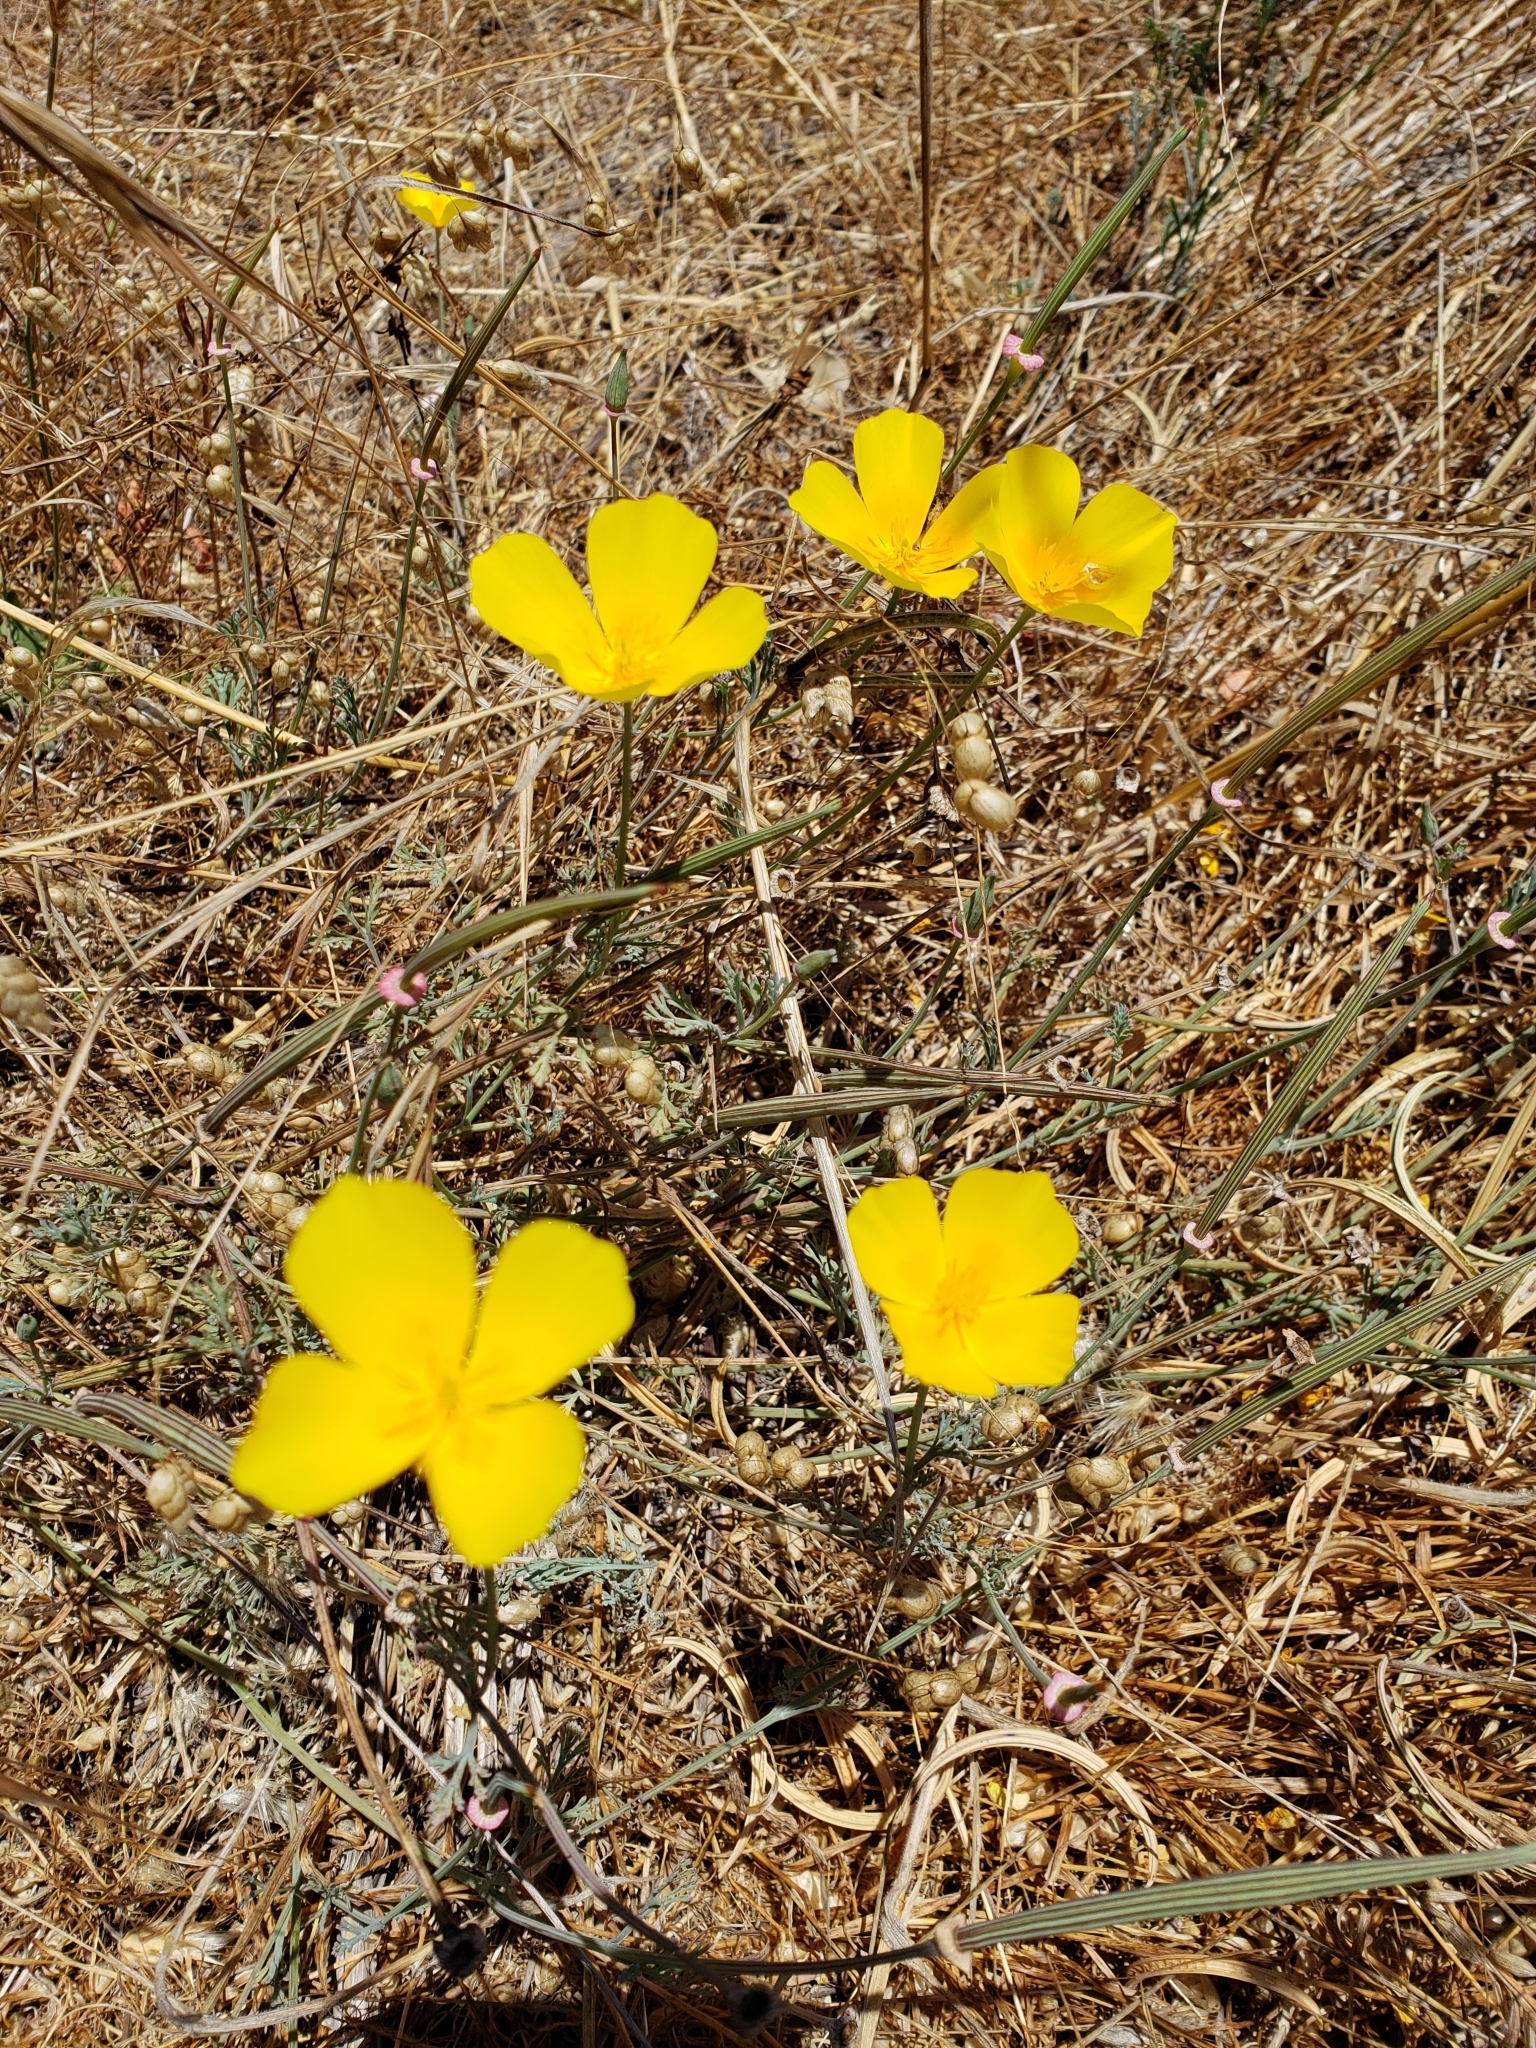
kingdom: Plantae
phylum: Tracheophyta
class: Magnoliopsida
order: Ranunculales
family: Papaveraceae
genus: Eschscholzia
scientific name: Eschscholzia californica
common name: California poppy
